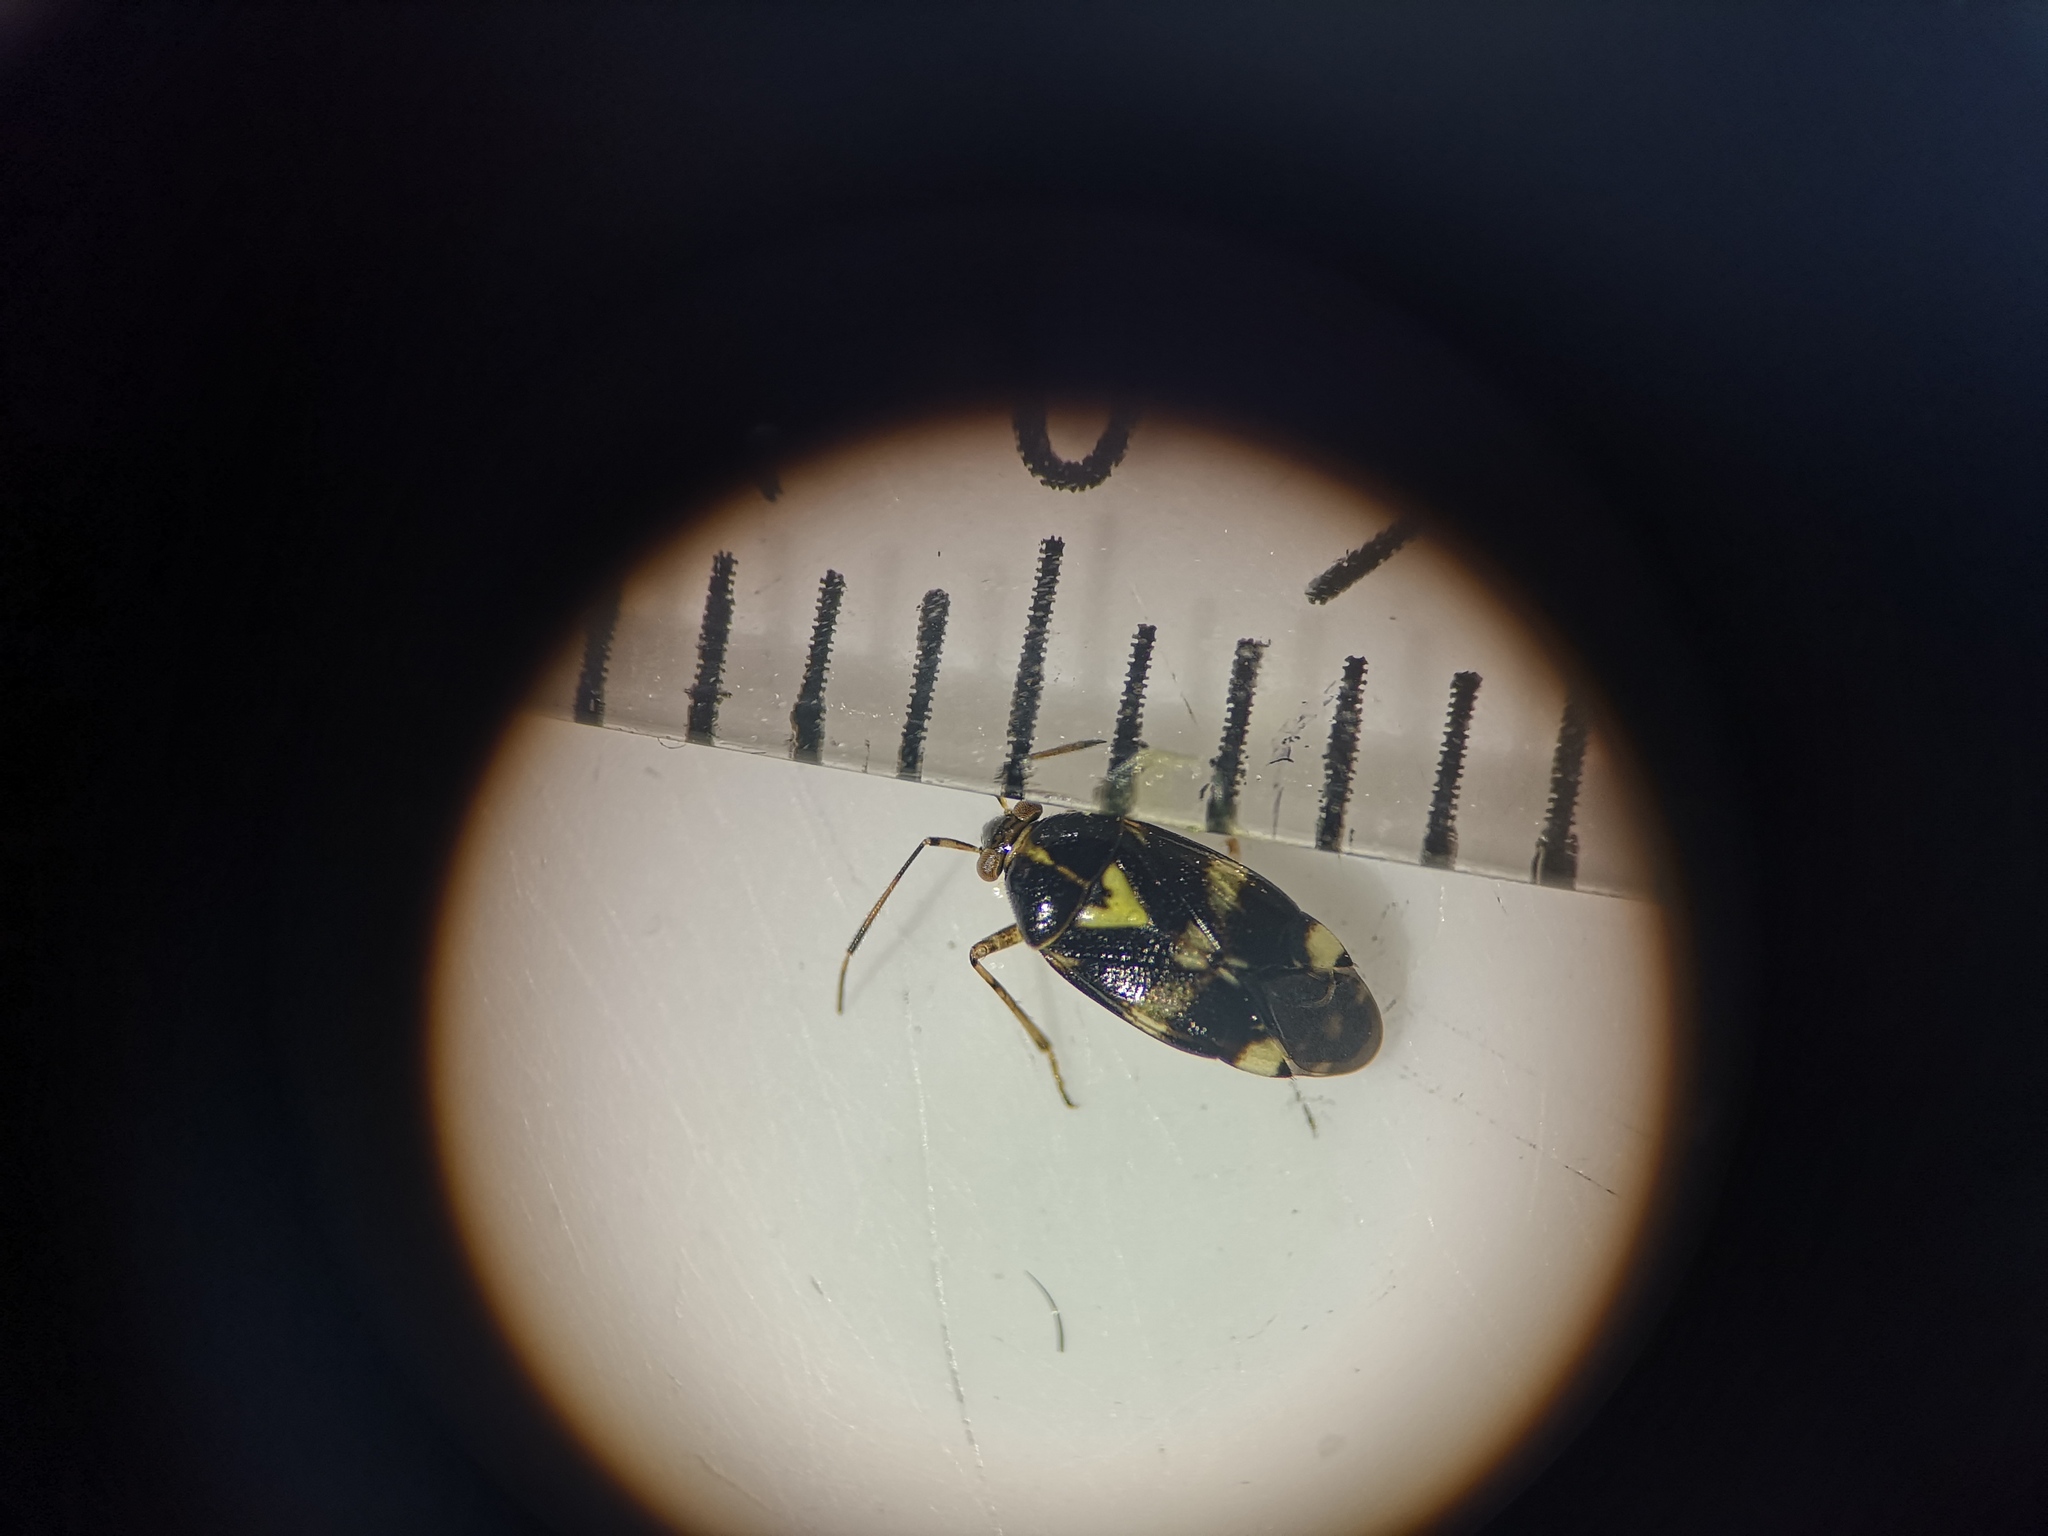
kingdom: Animalia
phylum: Arthropoda
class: Insecta
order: Hemiptera
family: Miridae
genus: Liocoris
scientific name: Liocoris tripustulatus
